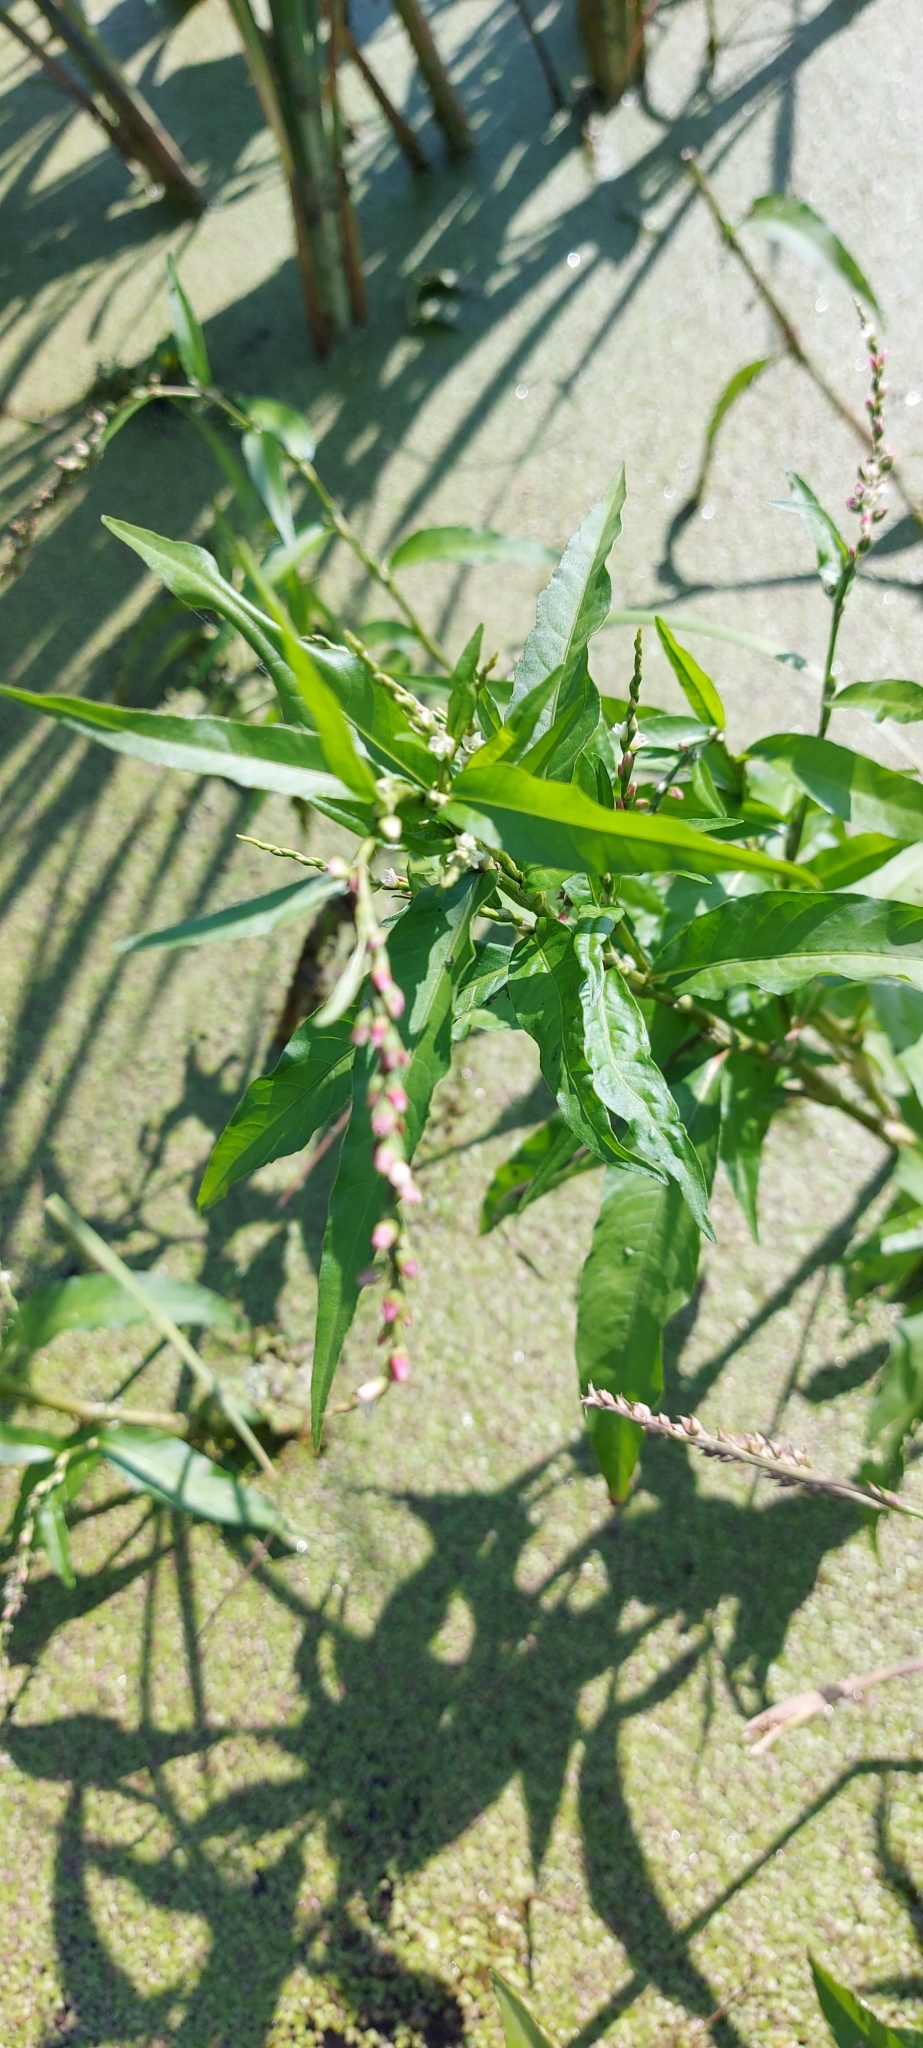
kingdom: Plantae
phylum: Tracheophyta
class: Magnoliopsida
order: Caryophyllales
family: Polygonaceae
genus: Persicaria
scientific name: Persicaria hydropiper
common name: Water-pepper
